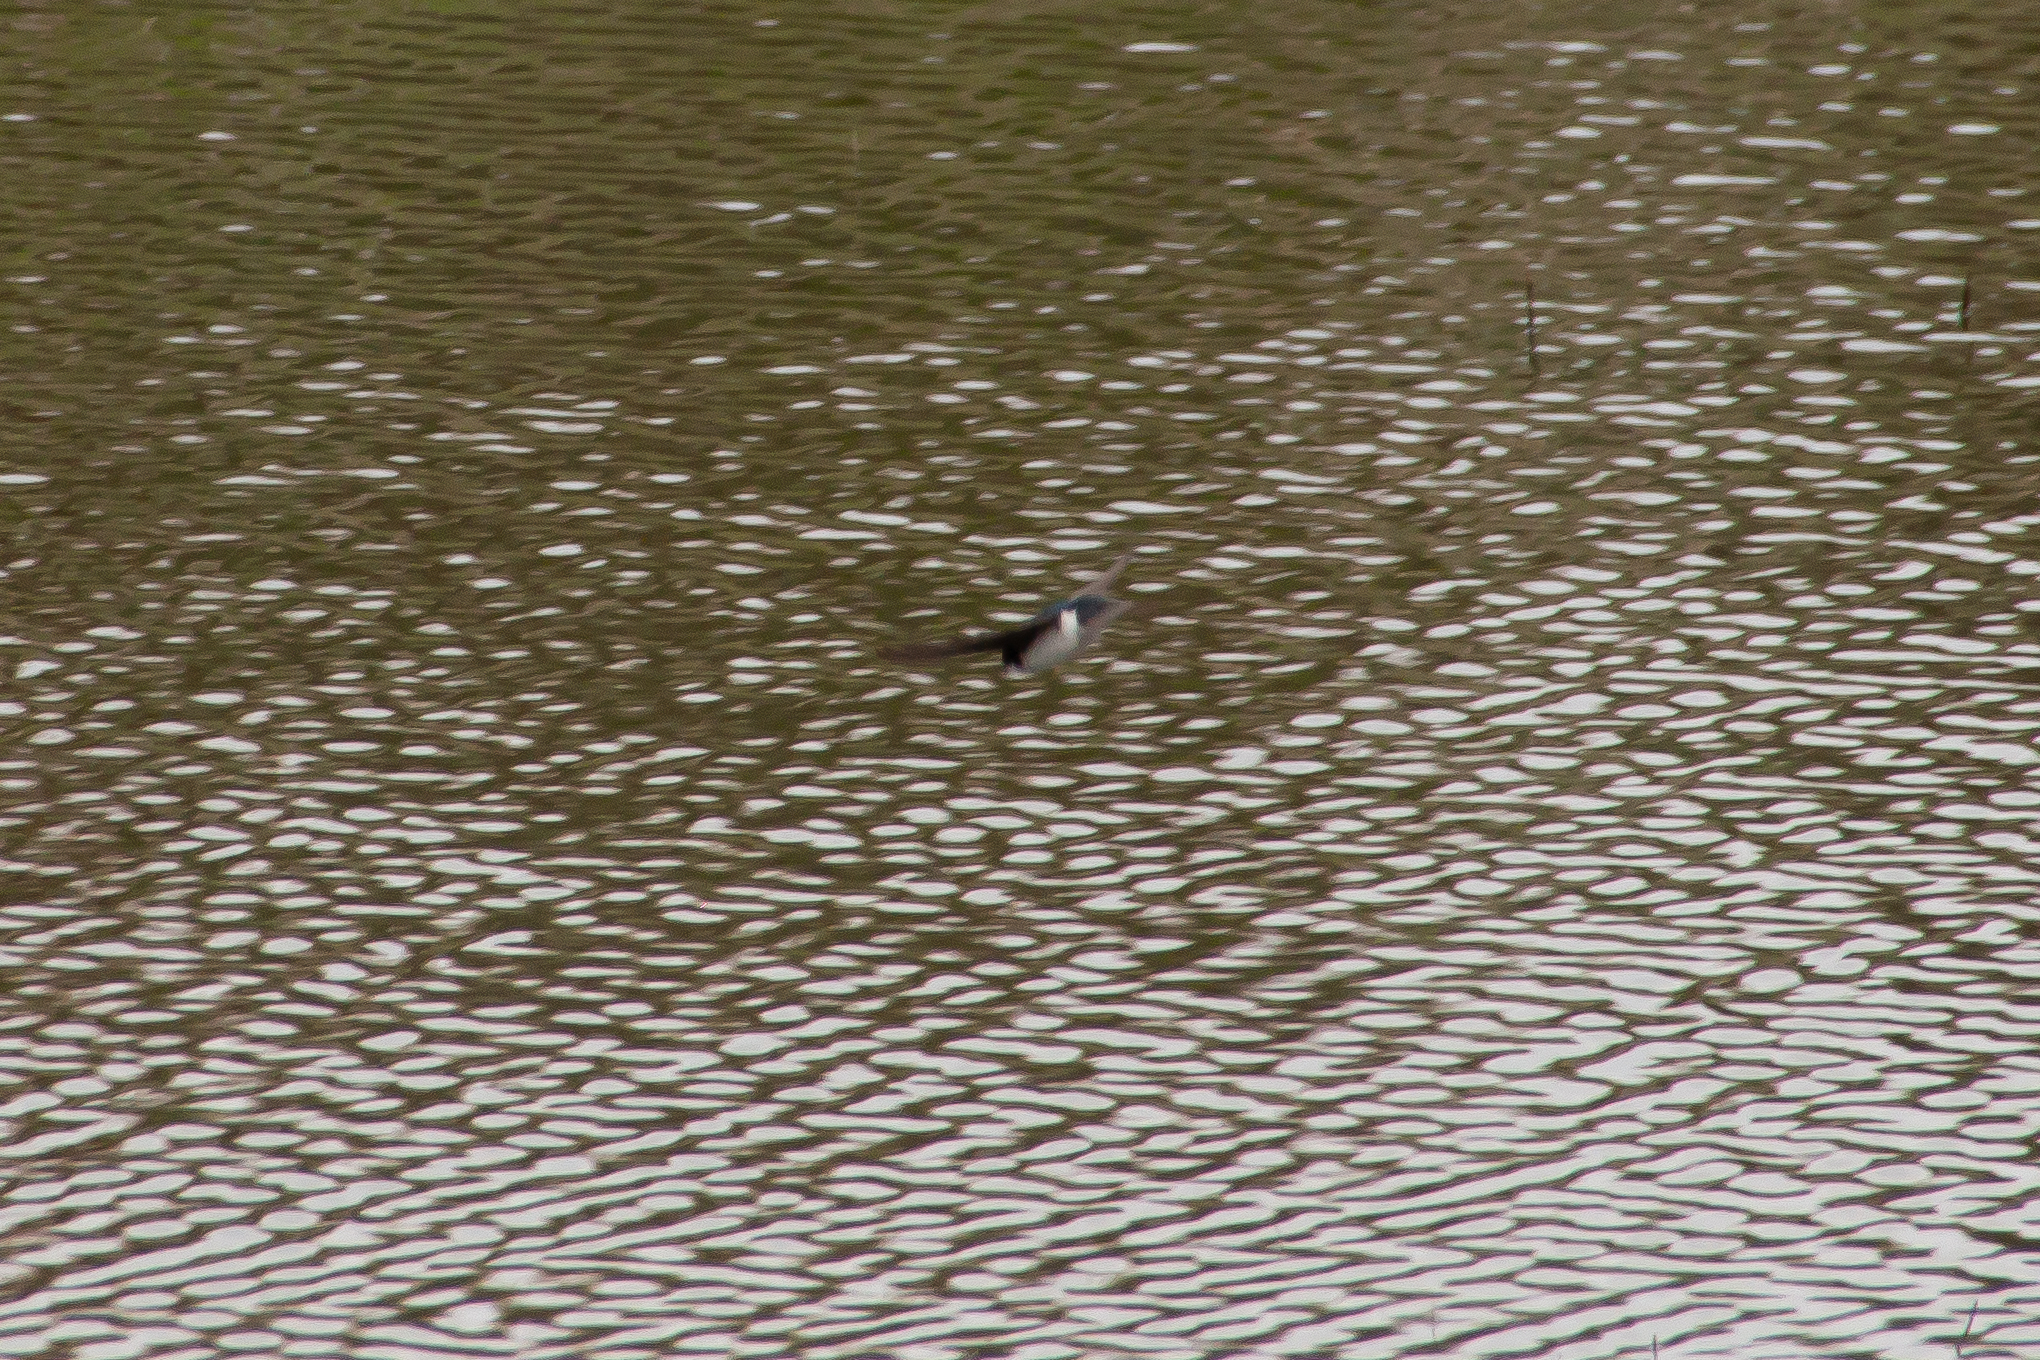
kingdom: Animalia
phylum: Chordata
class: Aves
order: Passeriformes
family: Hirundinidae
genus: Tachycineta
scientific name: Tachycineta bicolor
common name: Tree swallow
